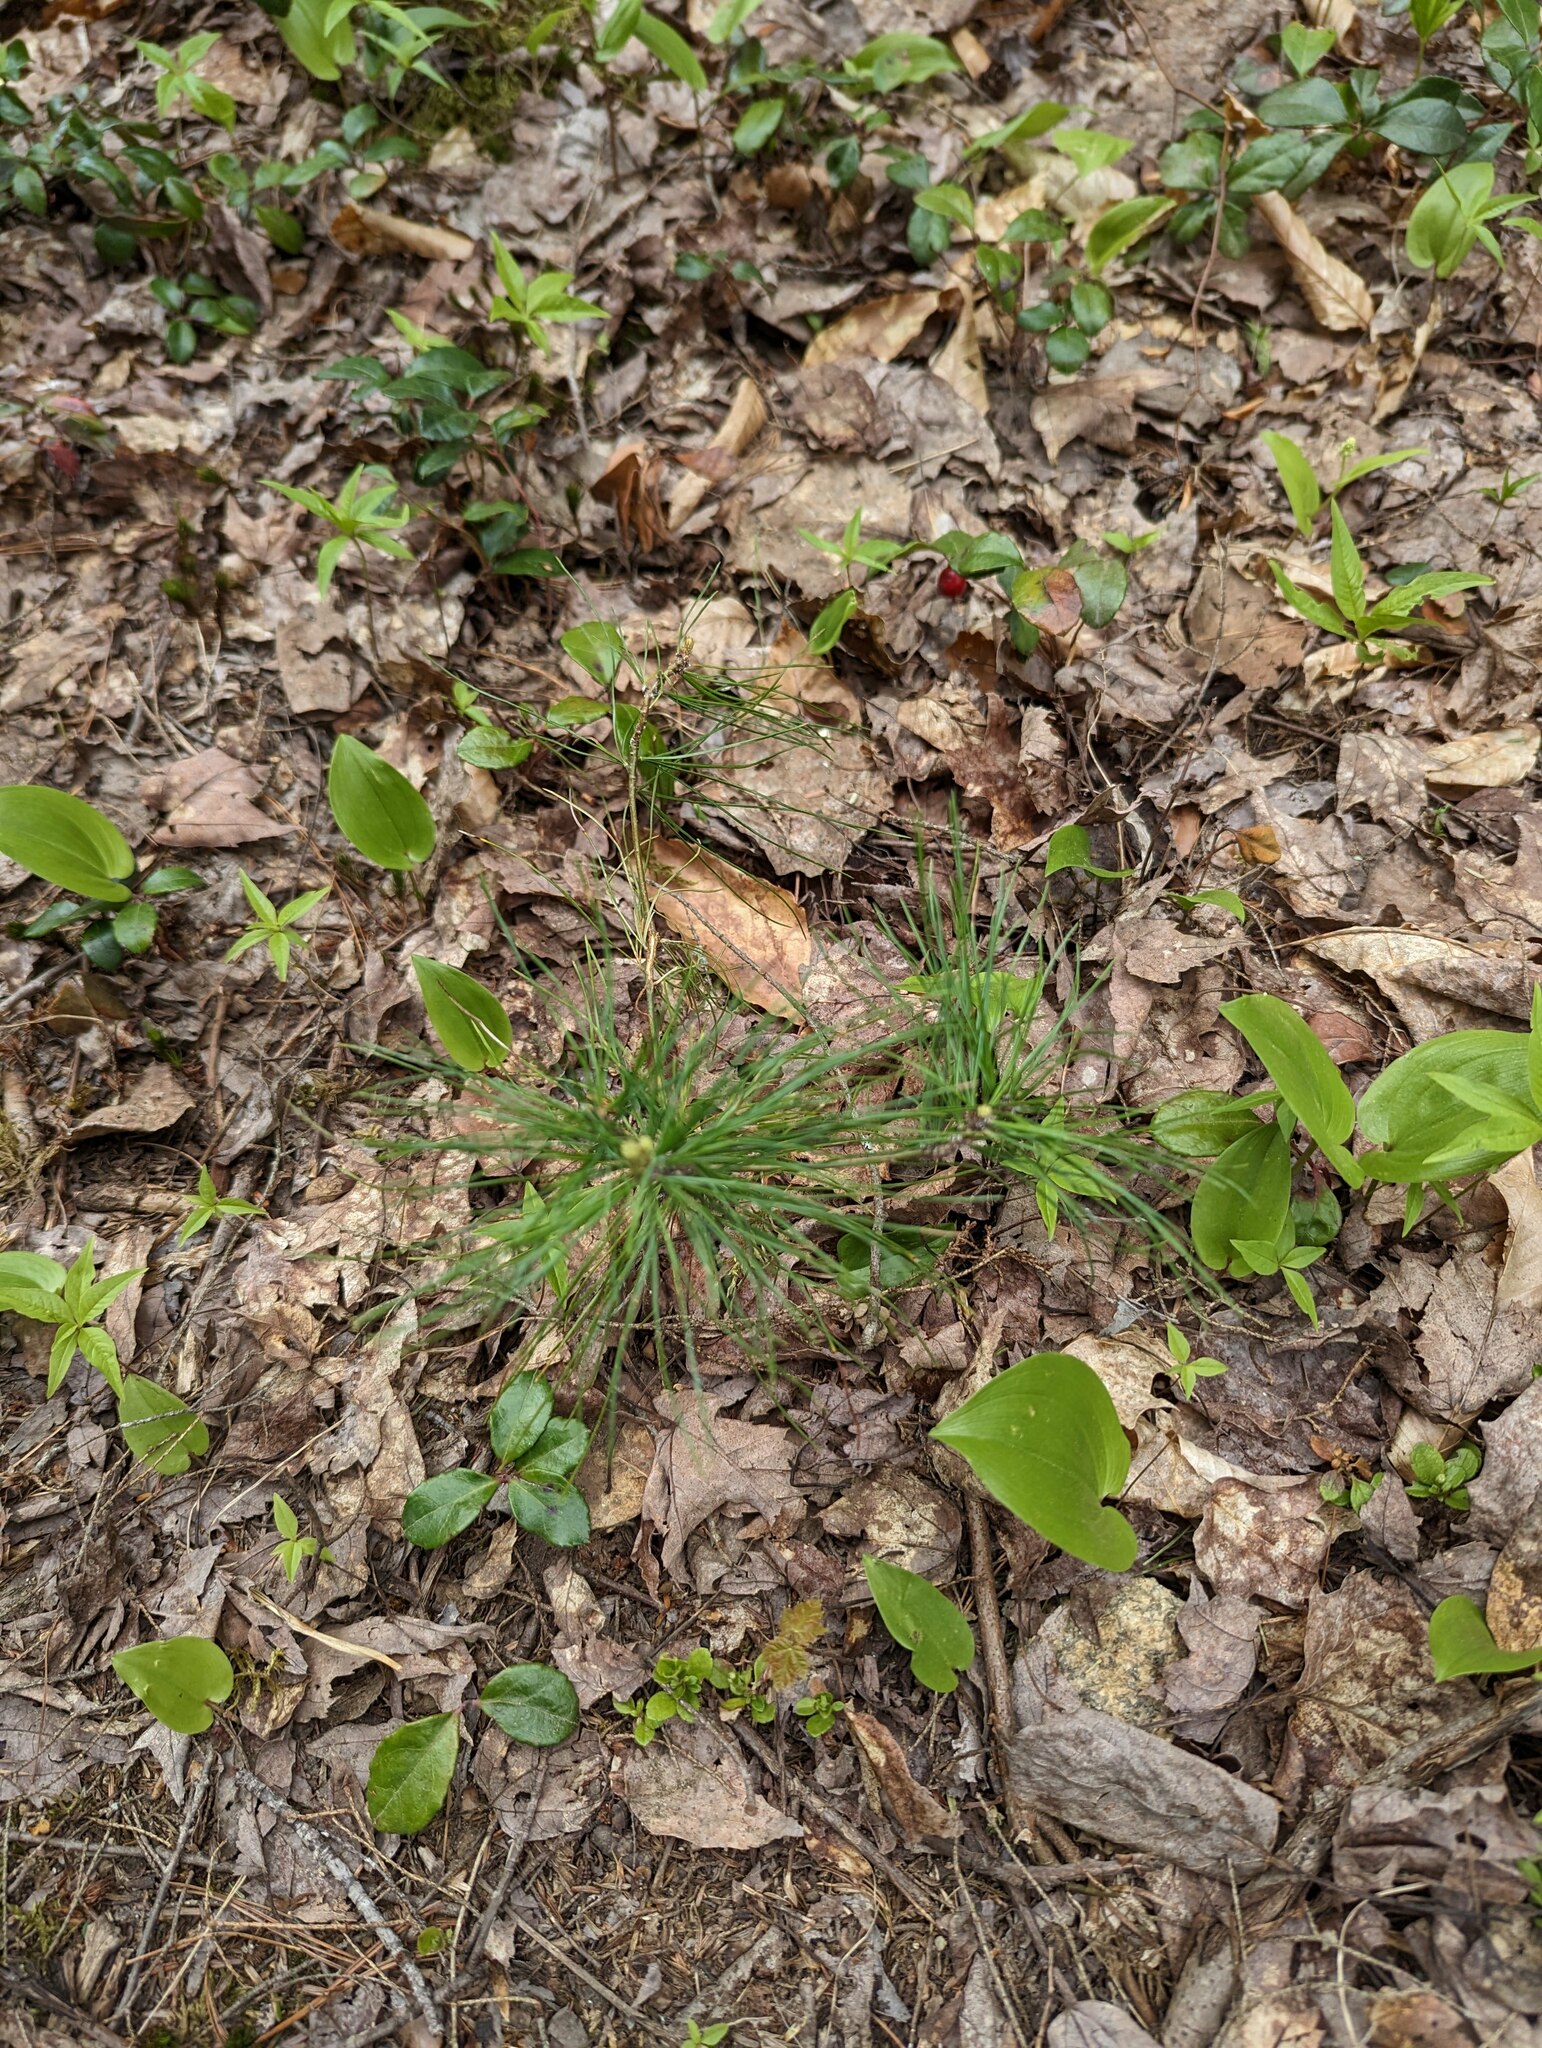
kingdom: Plantae
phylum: Tracheophyta
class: Pinopsida
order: Pinales
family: Pinaceae
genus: Pinus
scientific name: Pinus strobus
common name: Weymouth pine
